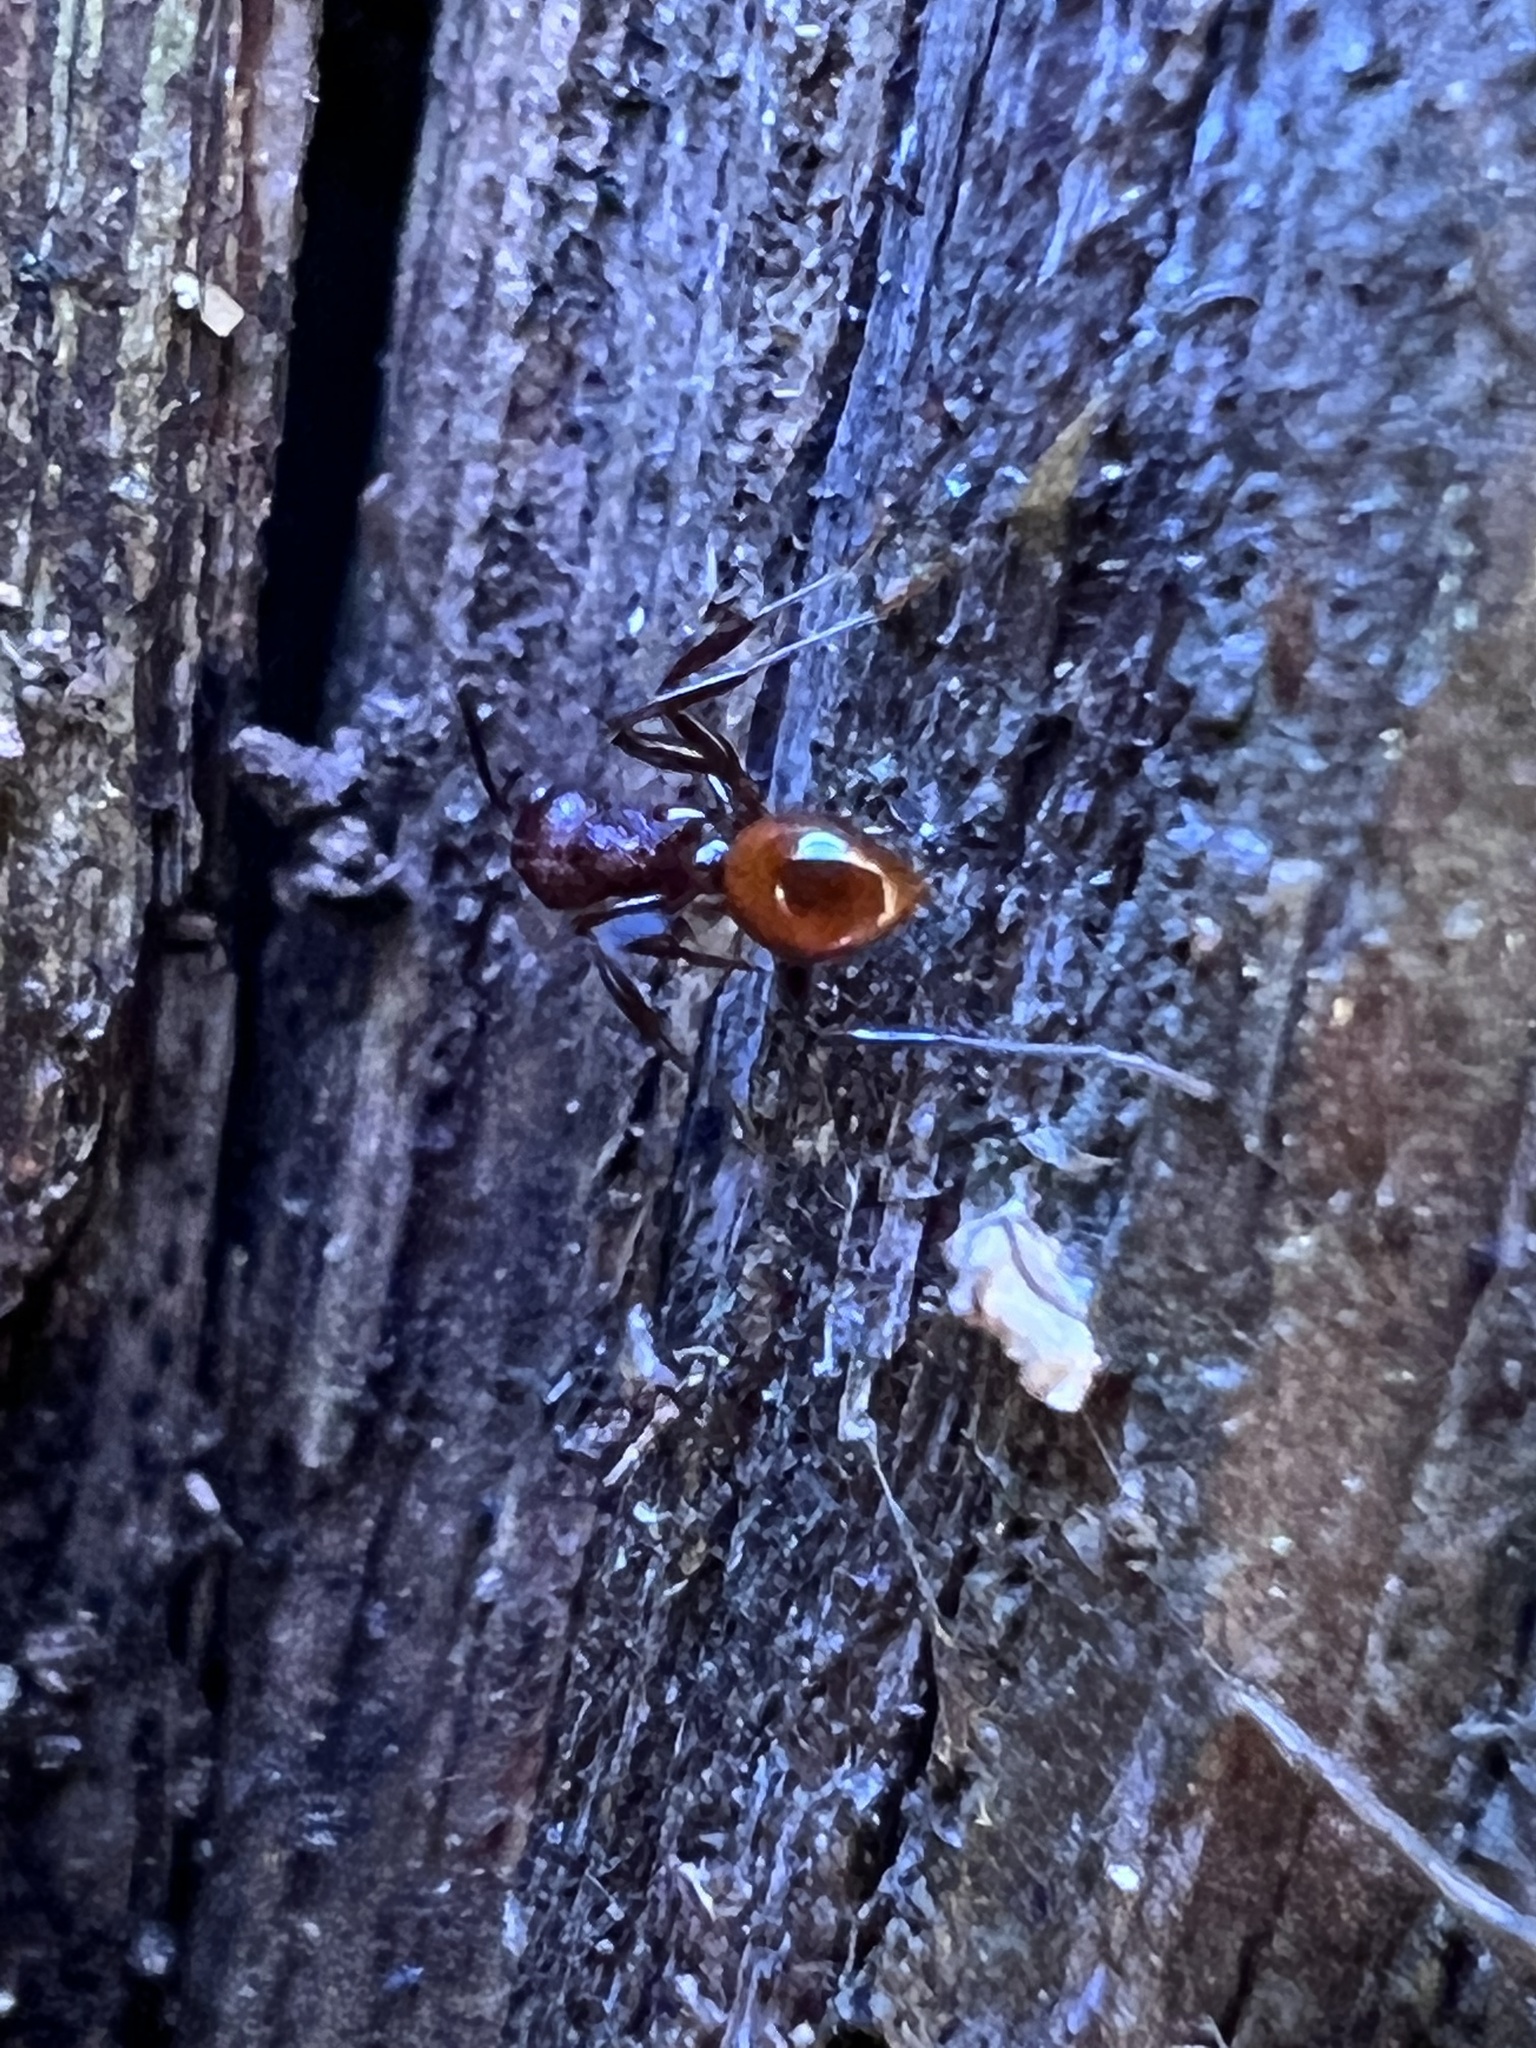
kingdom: Animalia
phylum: Arthropoda
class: Insecta
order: Hymenoptera
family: Formicidae
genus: Aphaenogaster
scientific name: Aphaenogaster tennesseensis
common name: Tennessee thread-waisted ant
